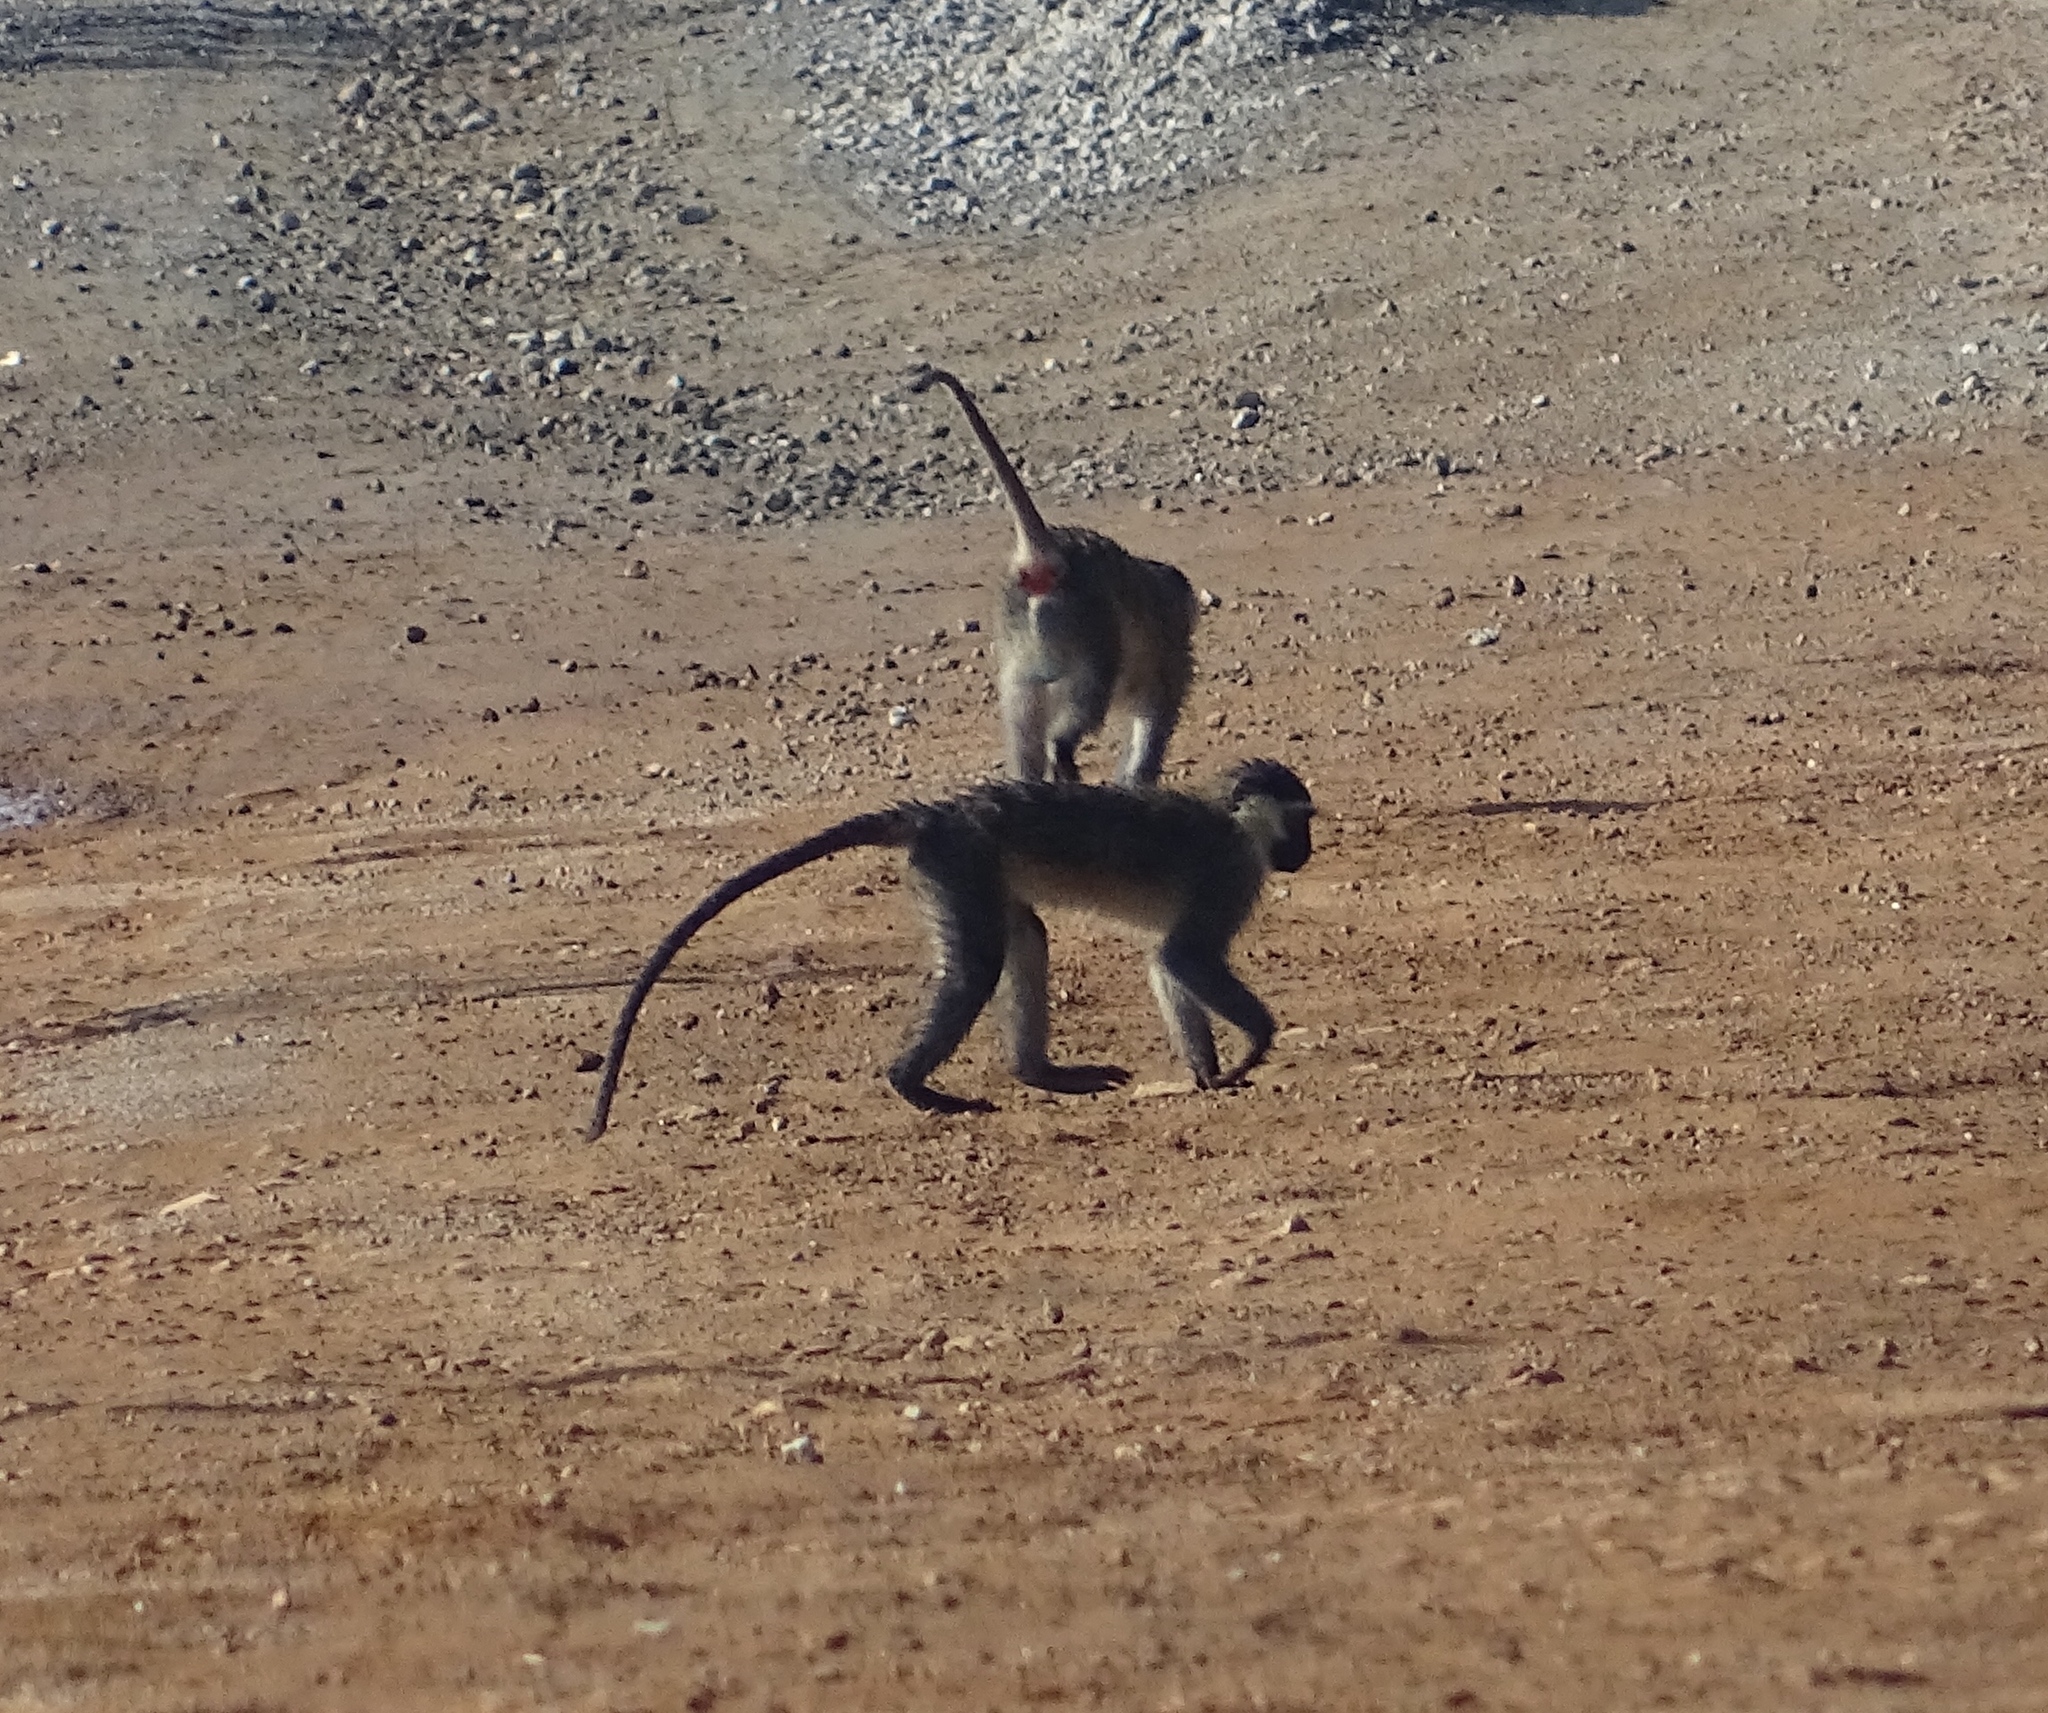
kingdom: Animalia
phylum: Chordata
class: Mammalia
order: Primates
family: Cercopithecidae
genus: Chlorocebus
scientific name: Chlorocebus tantalus
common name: Tantalus monkey
